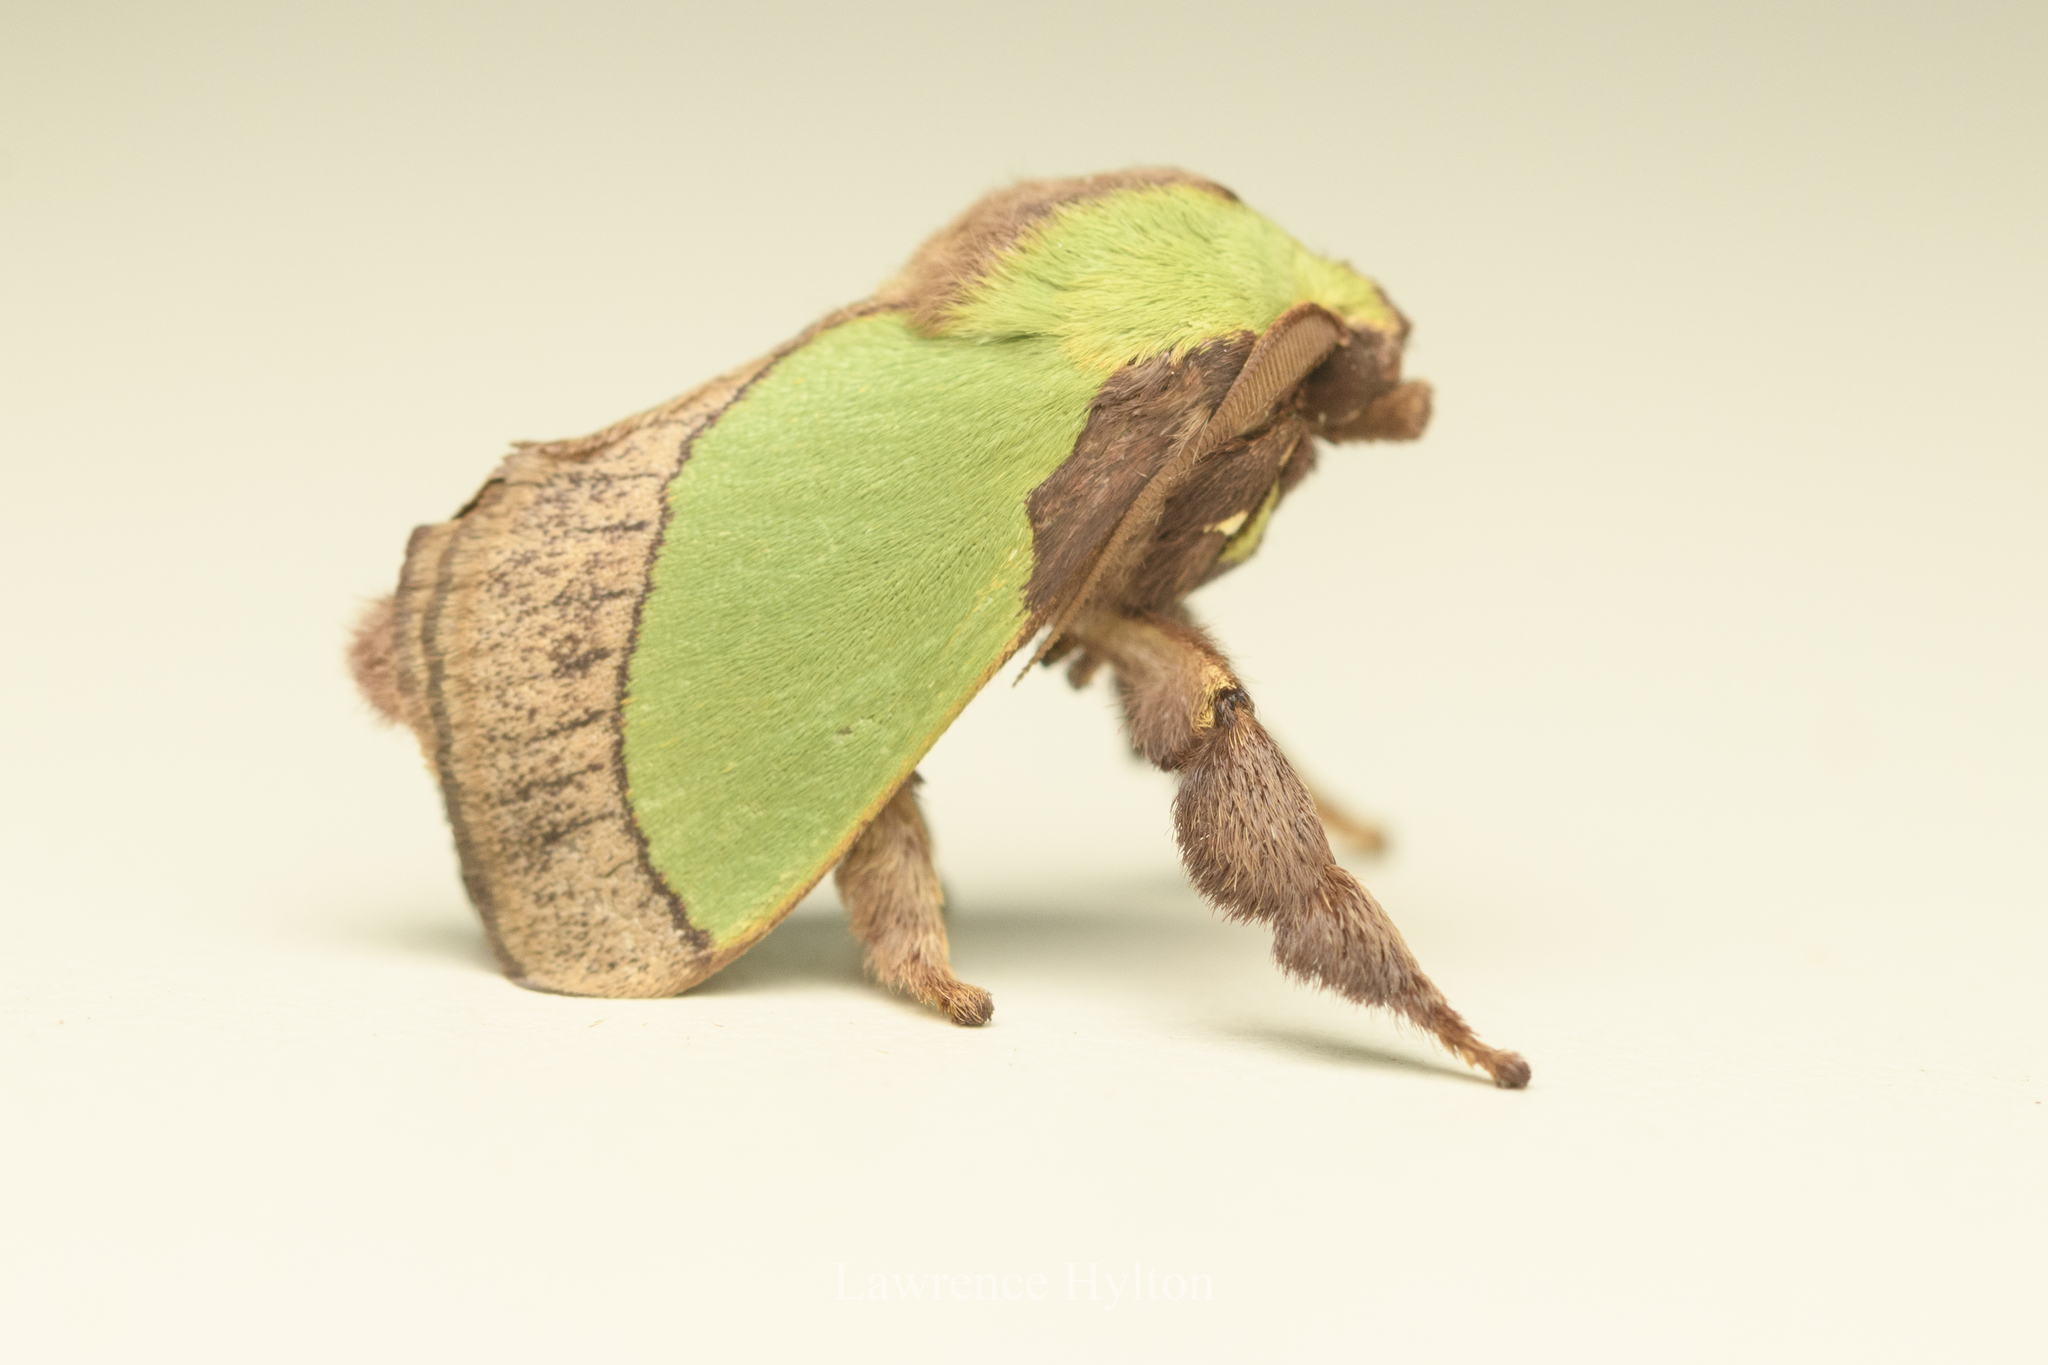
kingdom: Animalia
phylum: Arthropoda
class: Insecta
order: Lepidoptera
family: Limacodidae
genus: Parasa
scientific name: Parasa lepida
